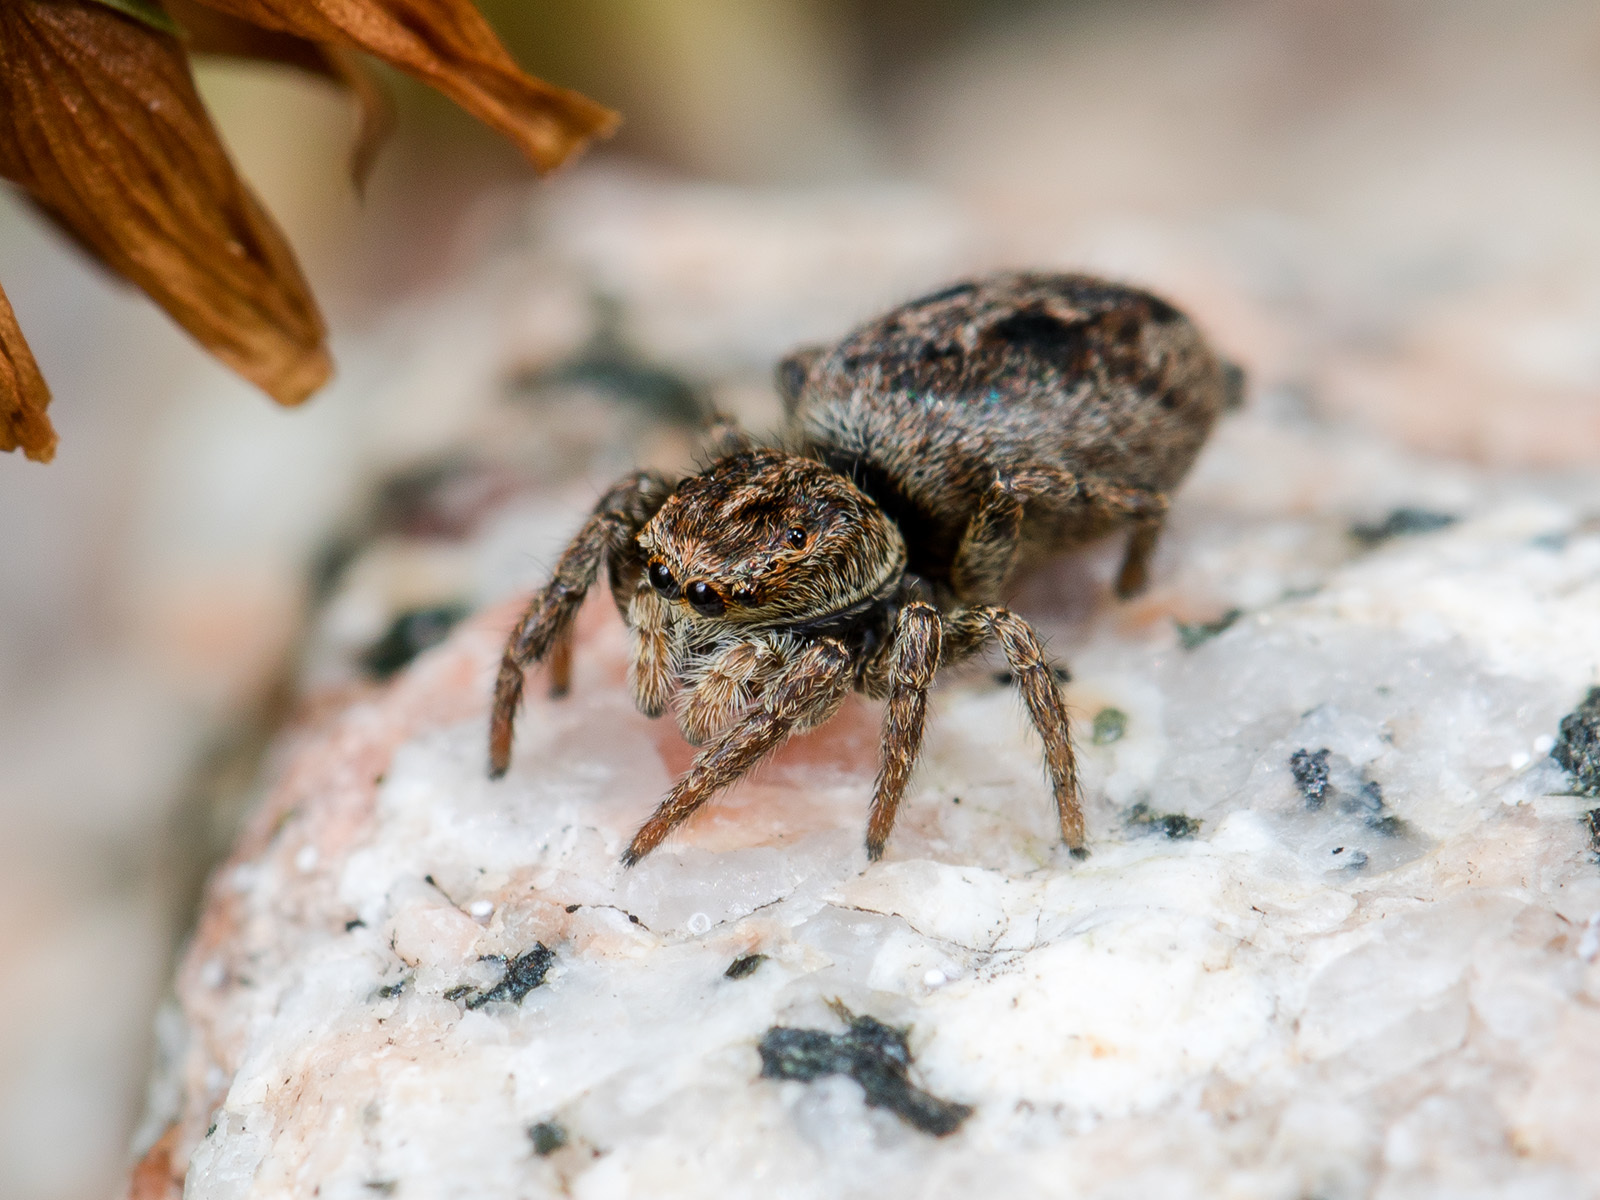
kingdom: Animalia
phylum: Arthropoda
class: Arachnida
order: Araneae
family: Salticidae
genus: Attulus
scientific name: Attulus talgarensis
